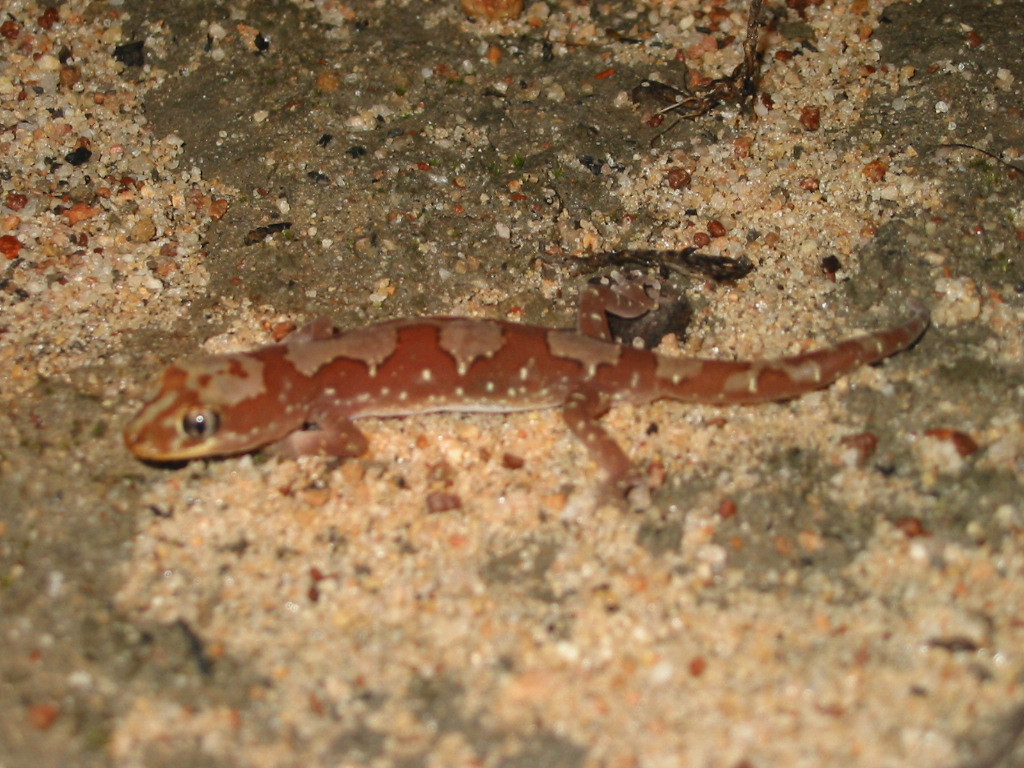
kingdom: Animalia
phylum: Chordata
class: Squamata
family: Diplodactylidae
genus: Lucasium
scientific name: Lucasium steindachneri
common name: Box-patterned gecko
